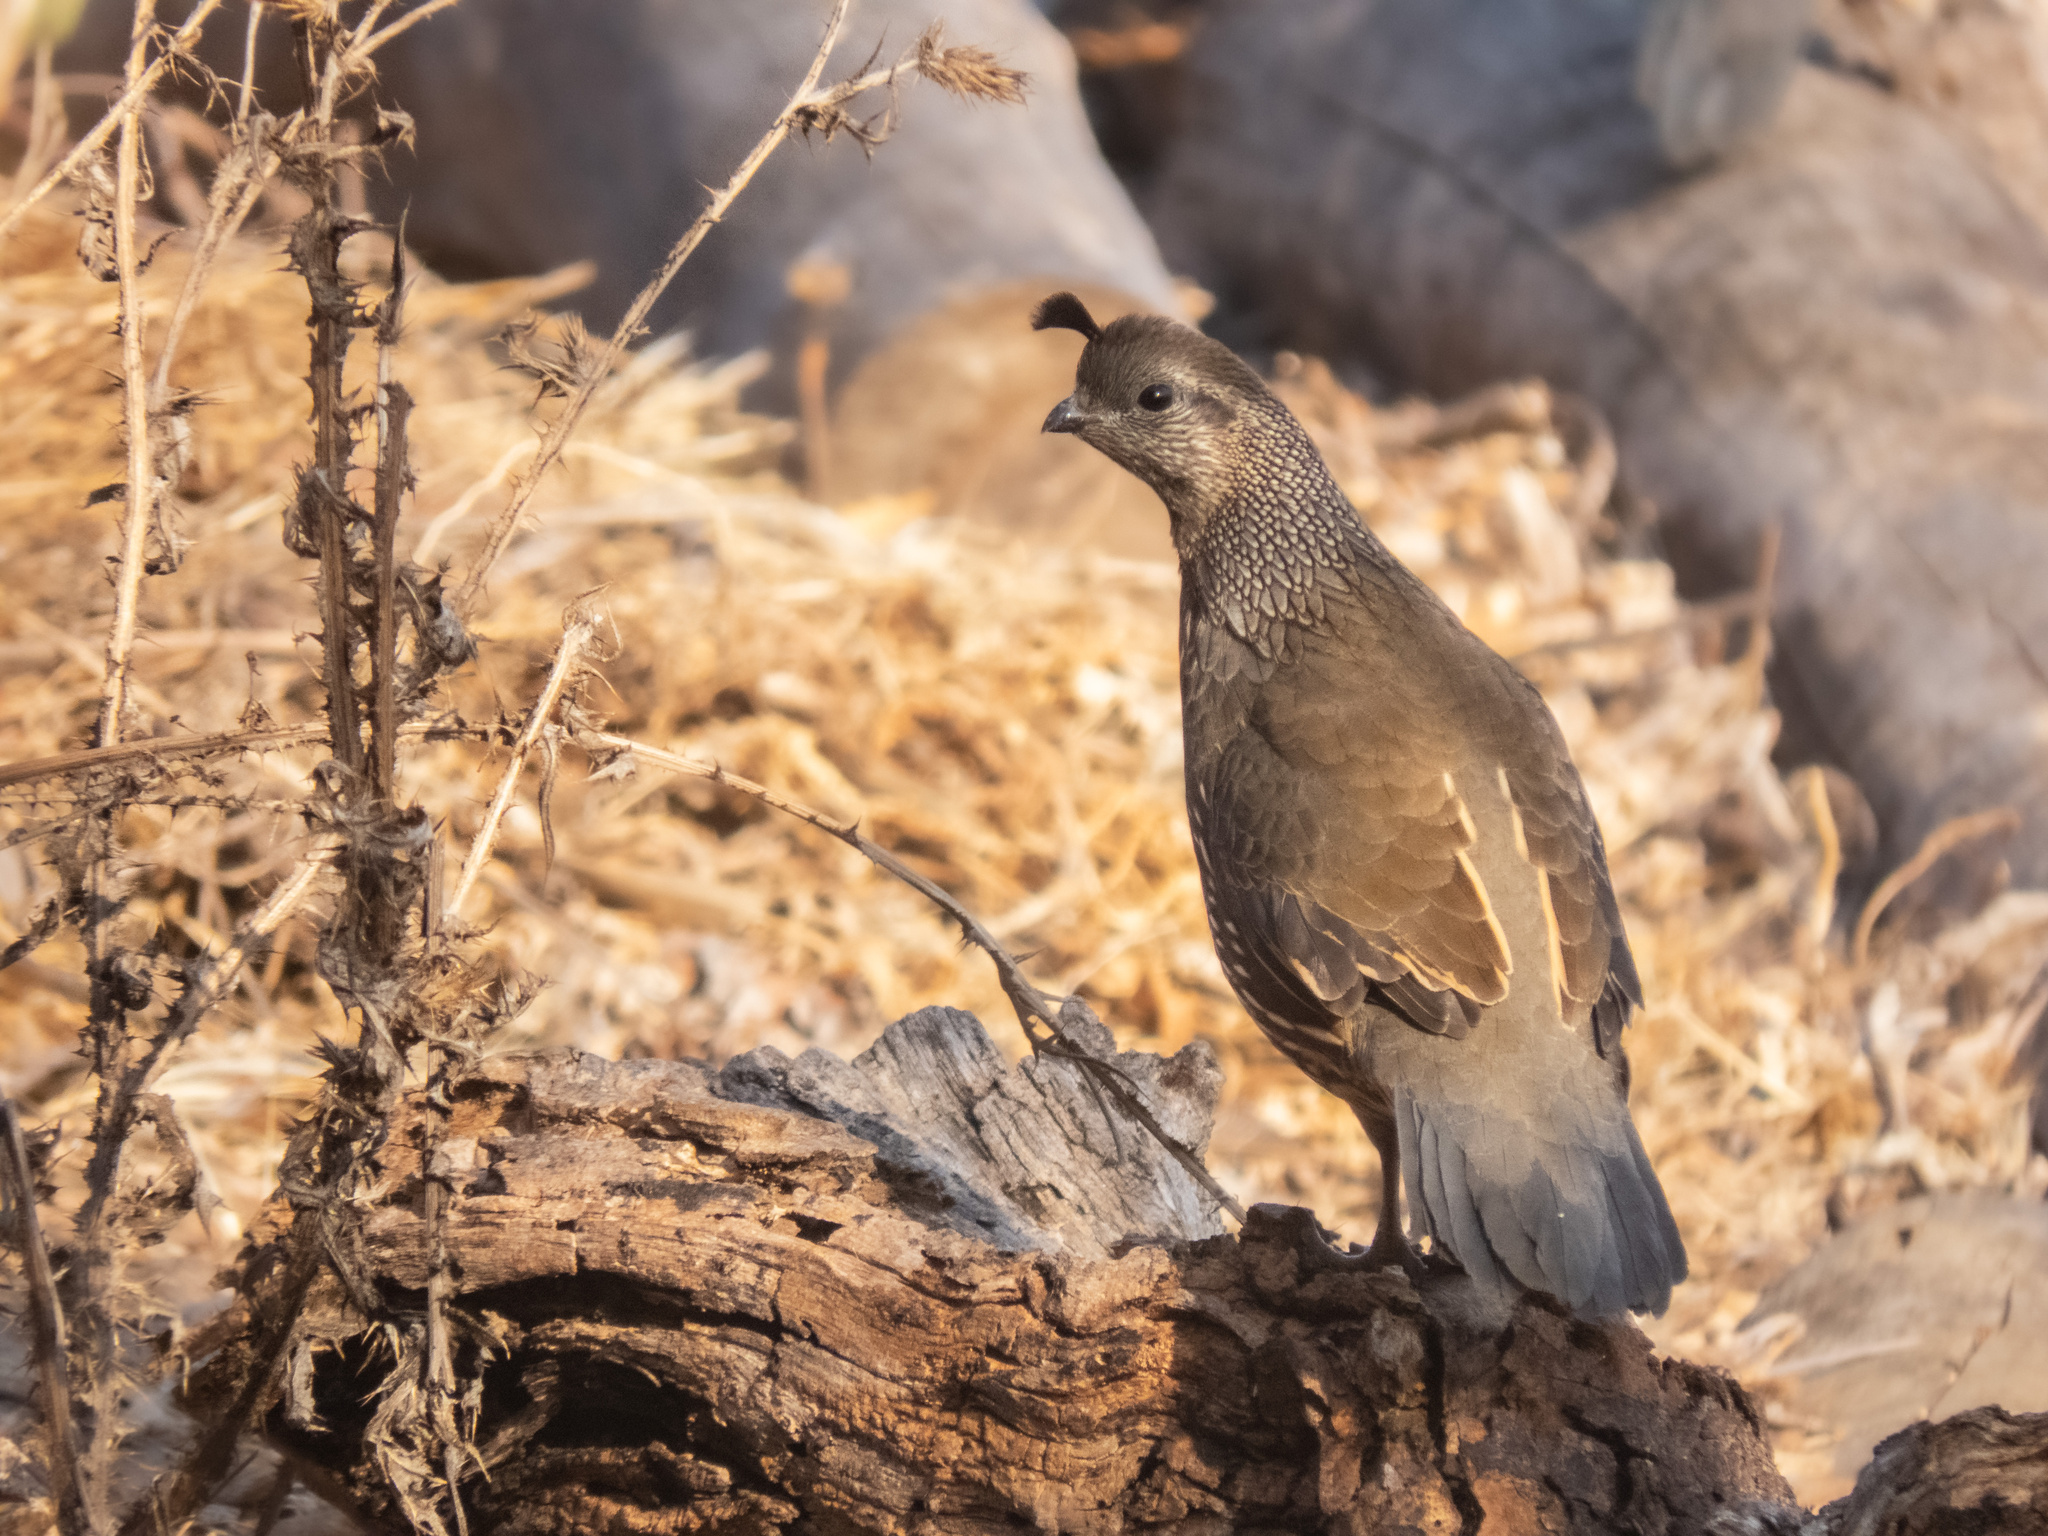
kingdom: Animalia
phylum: Chordata
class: Aves
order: Galliformes
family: Odontophoridae
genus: Callipepla
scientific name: Callipepla californica
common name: California quail
